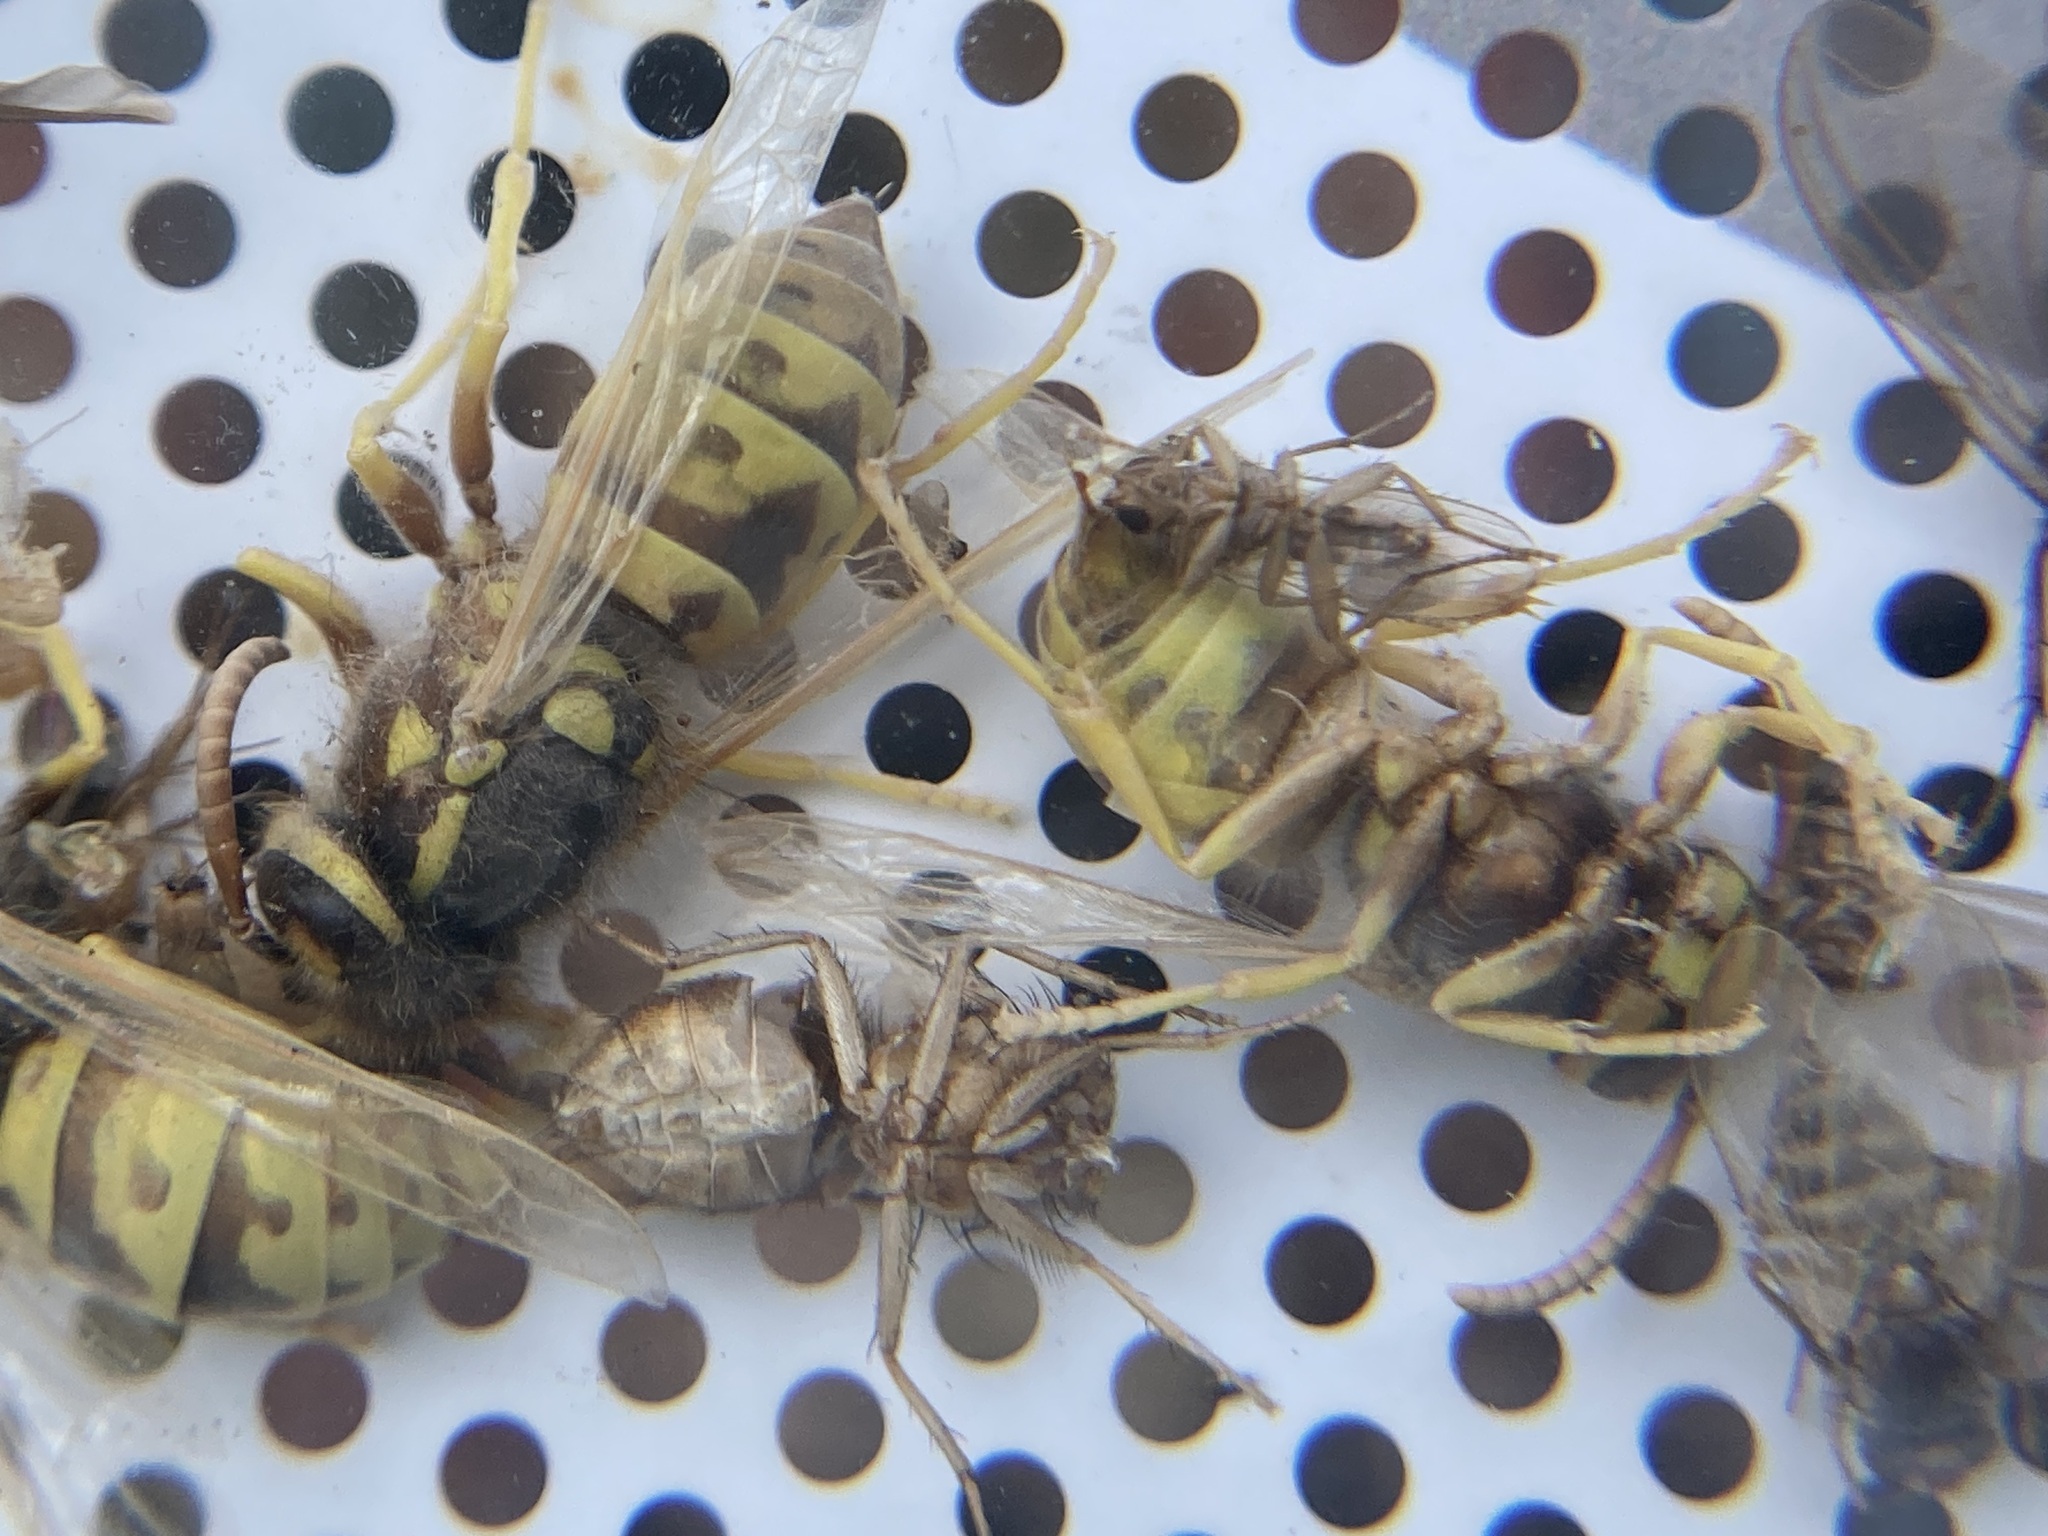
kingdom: Animalia
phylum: Arthropoda
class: Insecta
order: Hymenoptera
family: Vespidae
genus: Vespula
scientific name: Vespula germanica
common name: German wasp
